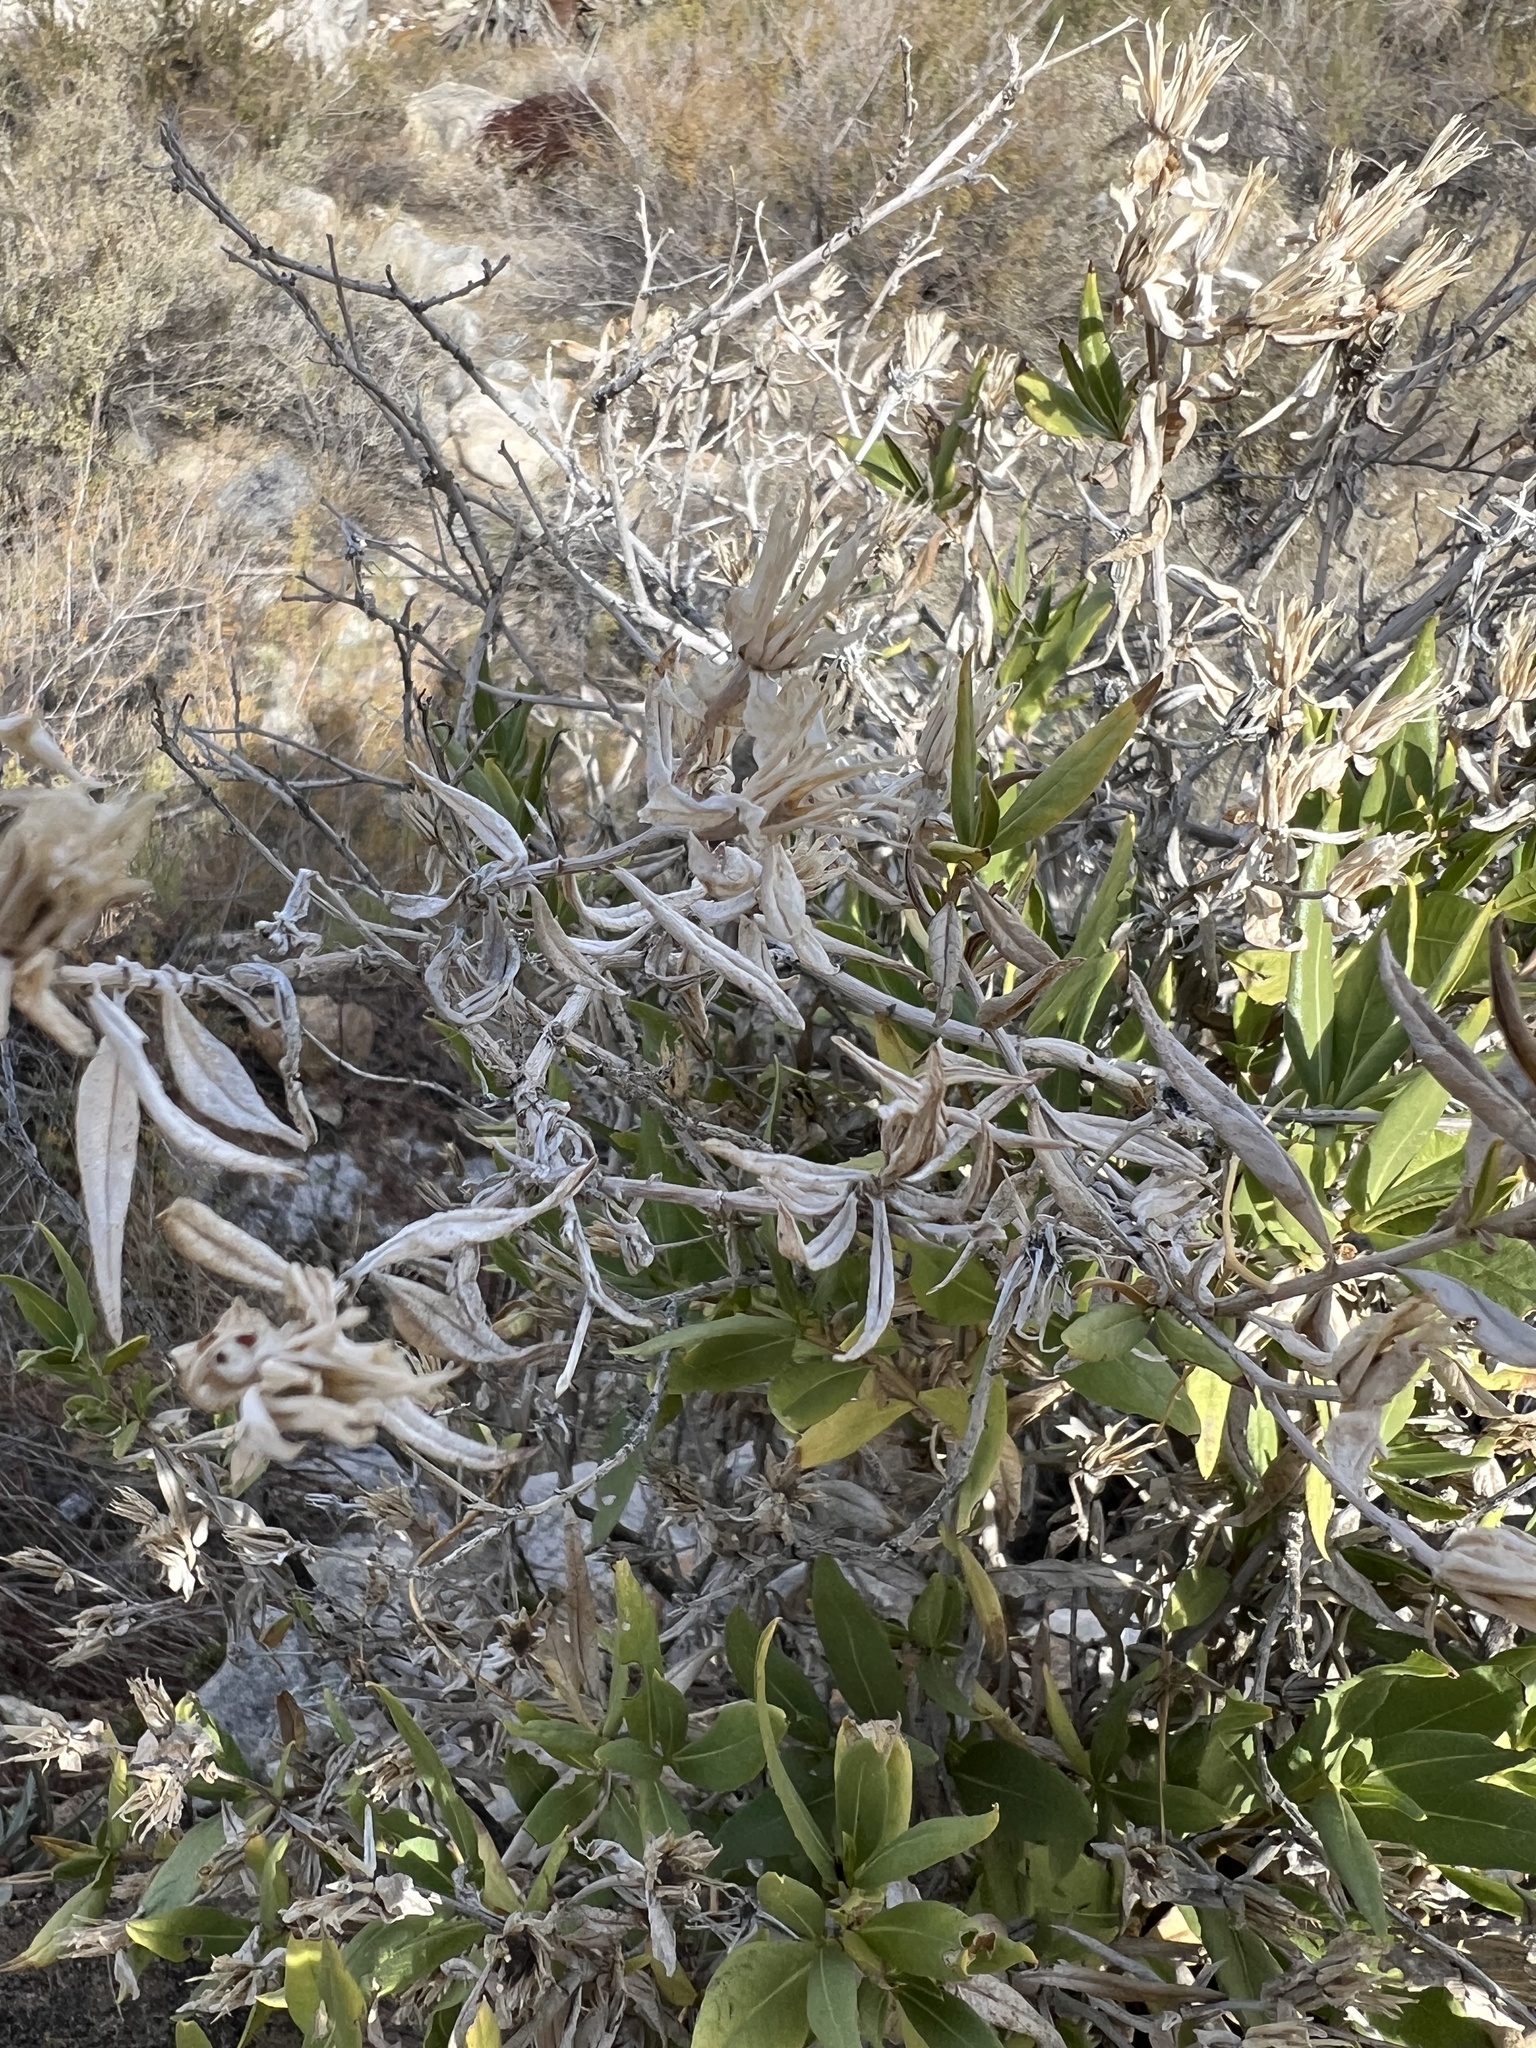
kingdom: Plantae
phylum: Tracheophyta
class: Magnoliopsida
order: Asterales
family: Asteraceae
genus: Trixis
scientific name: Trixis californica
